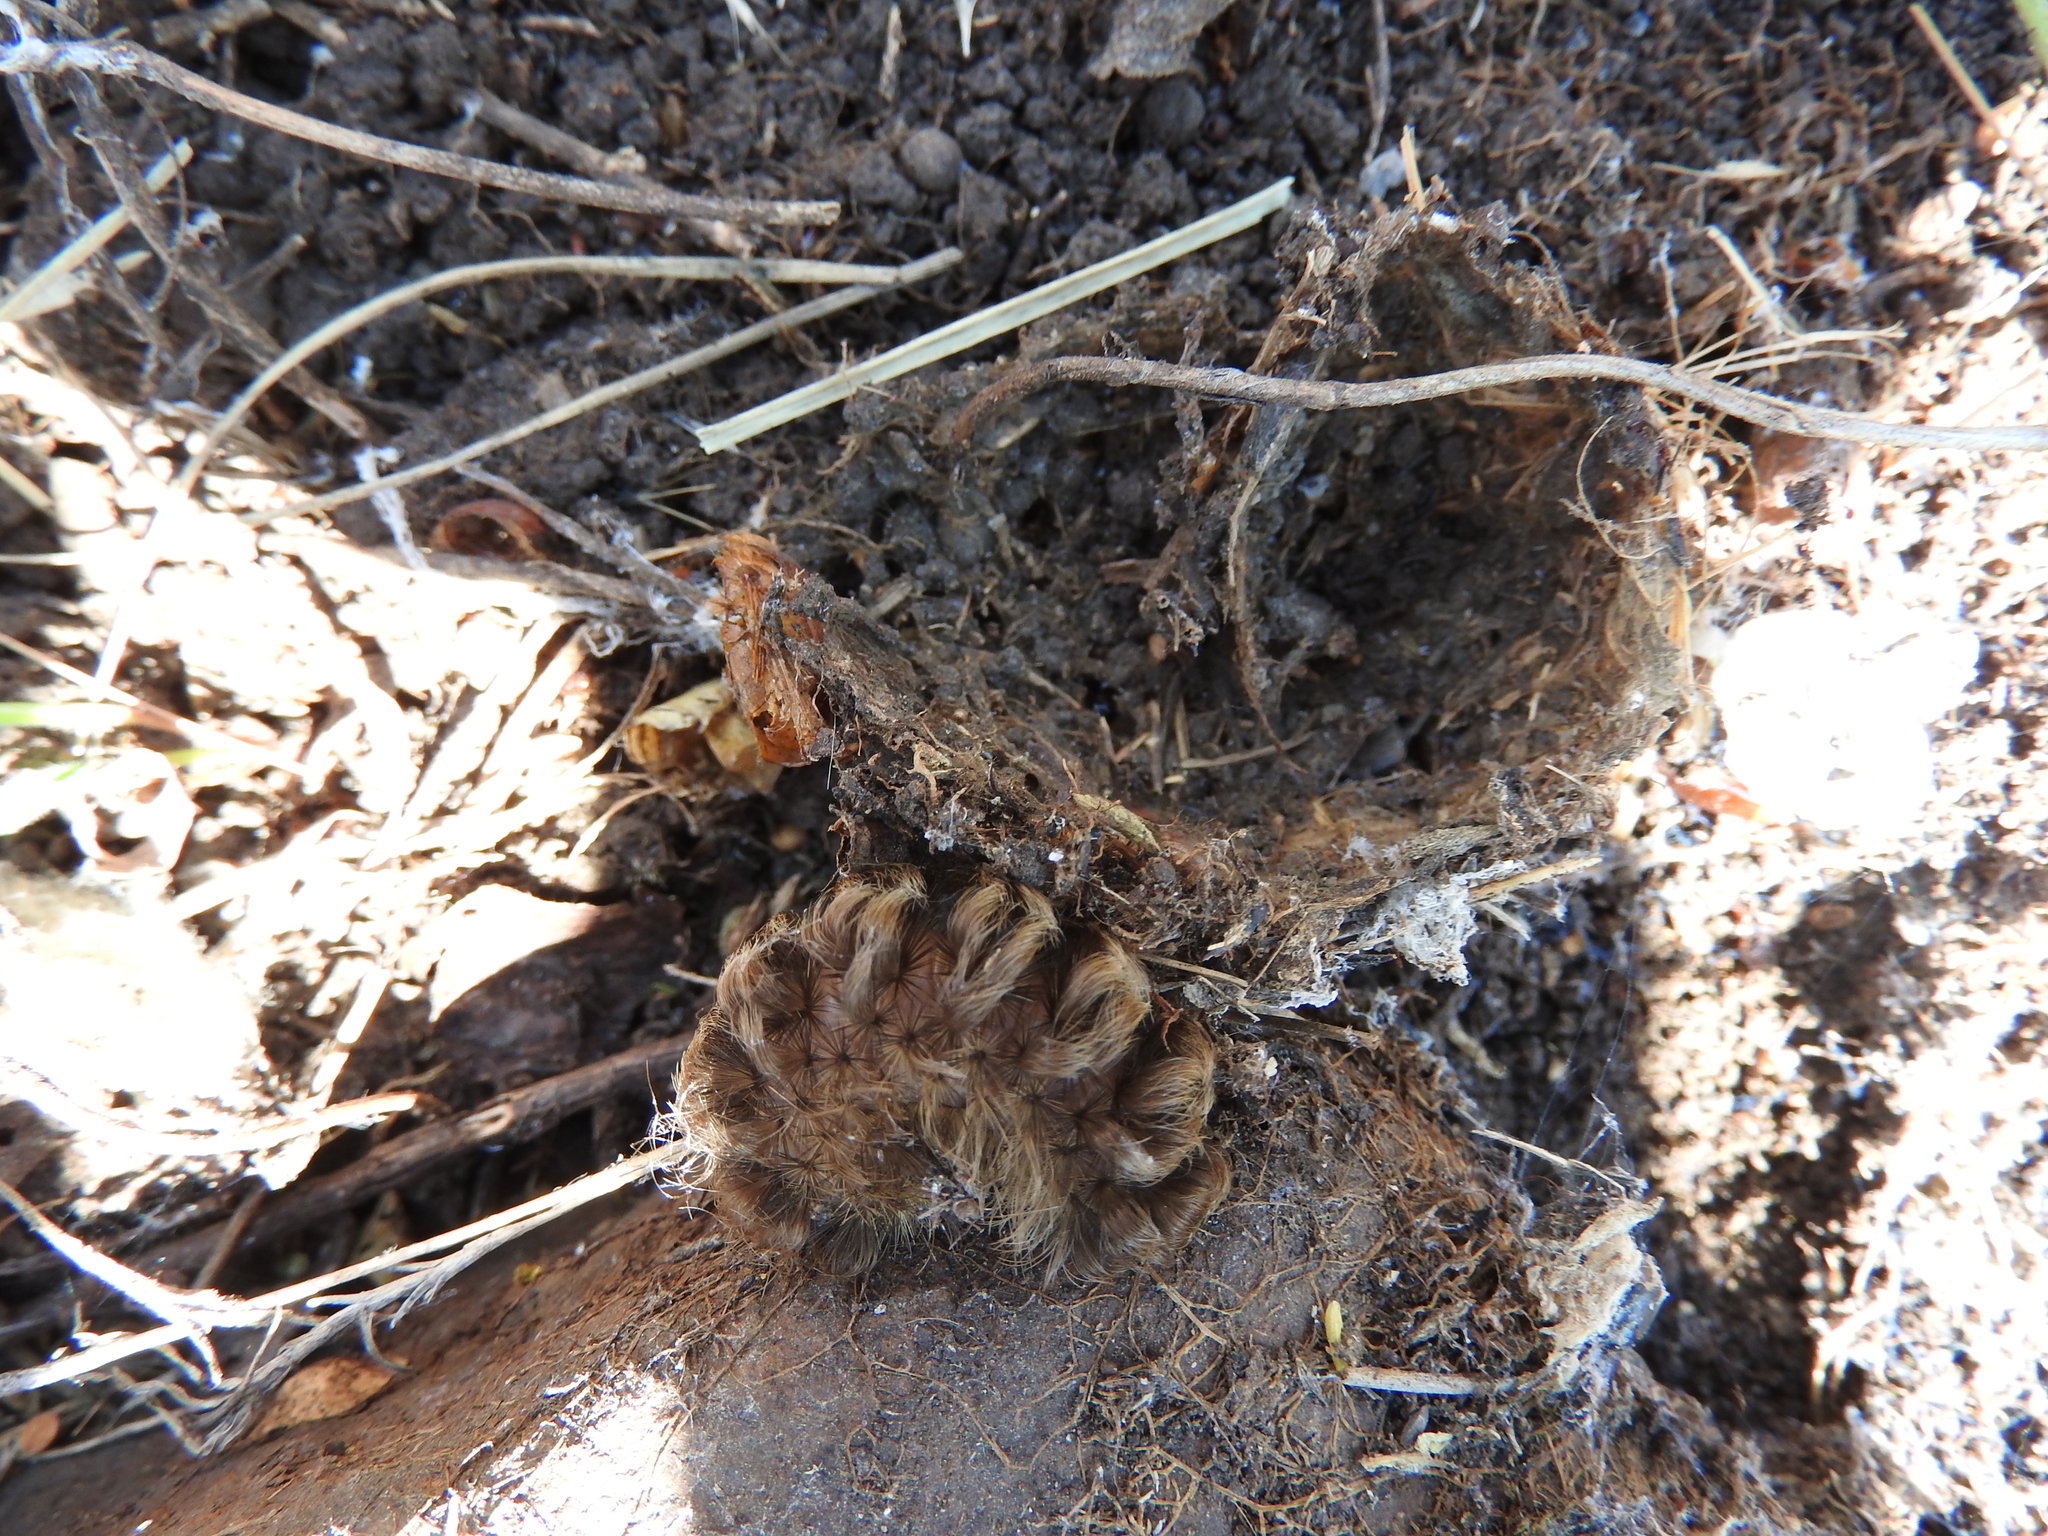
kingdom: Animalia
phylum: Arthropoda
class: Insecta
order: Lepidoptera
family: Erebidae
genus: Ectypia
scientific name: Ectypia clio
